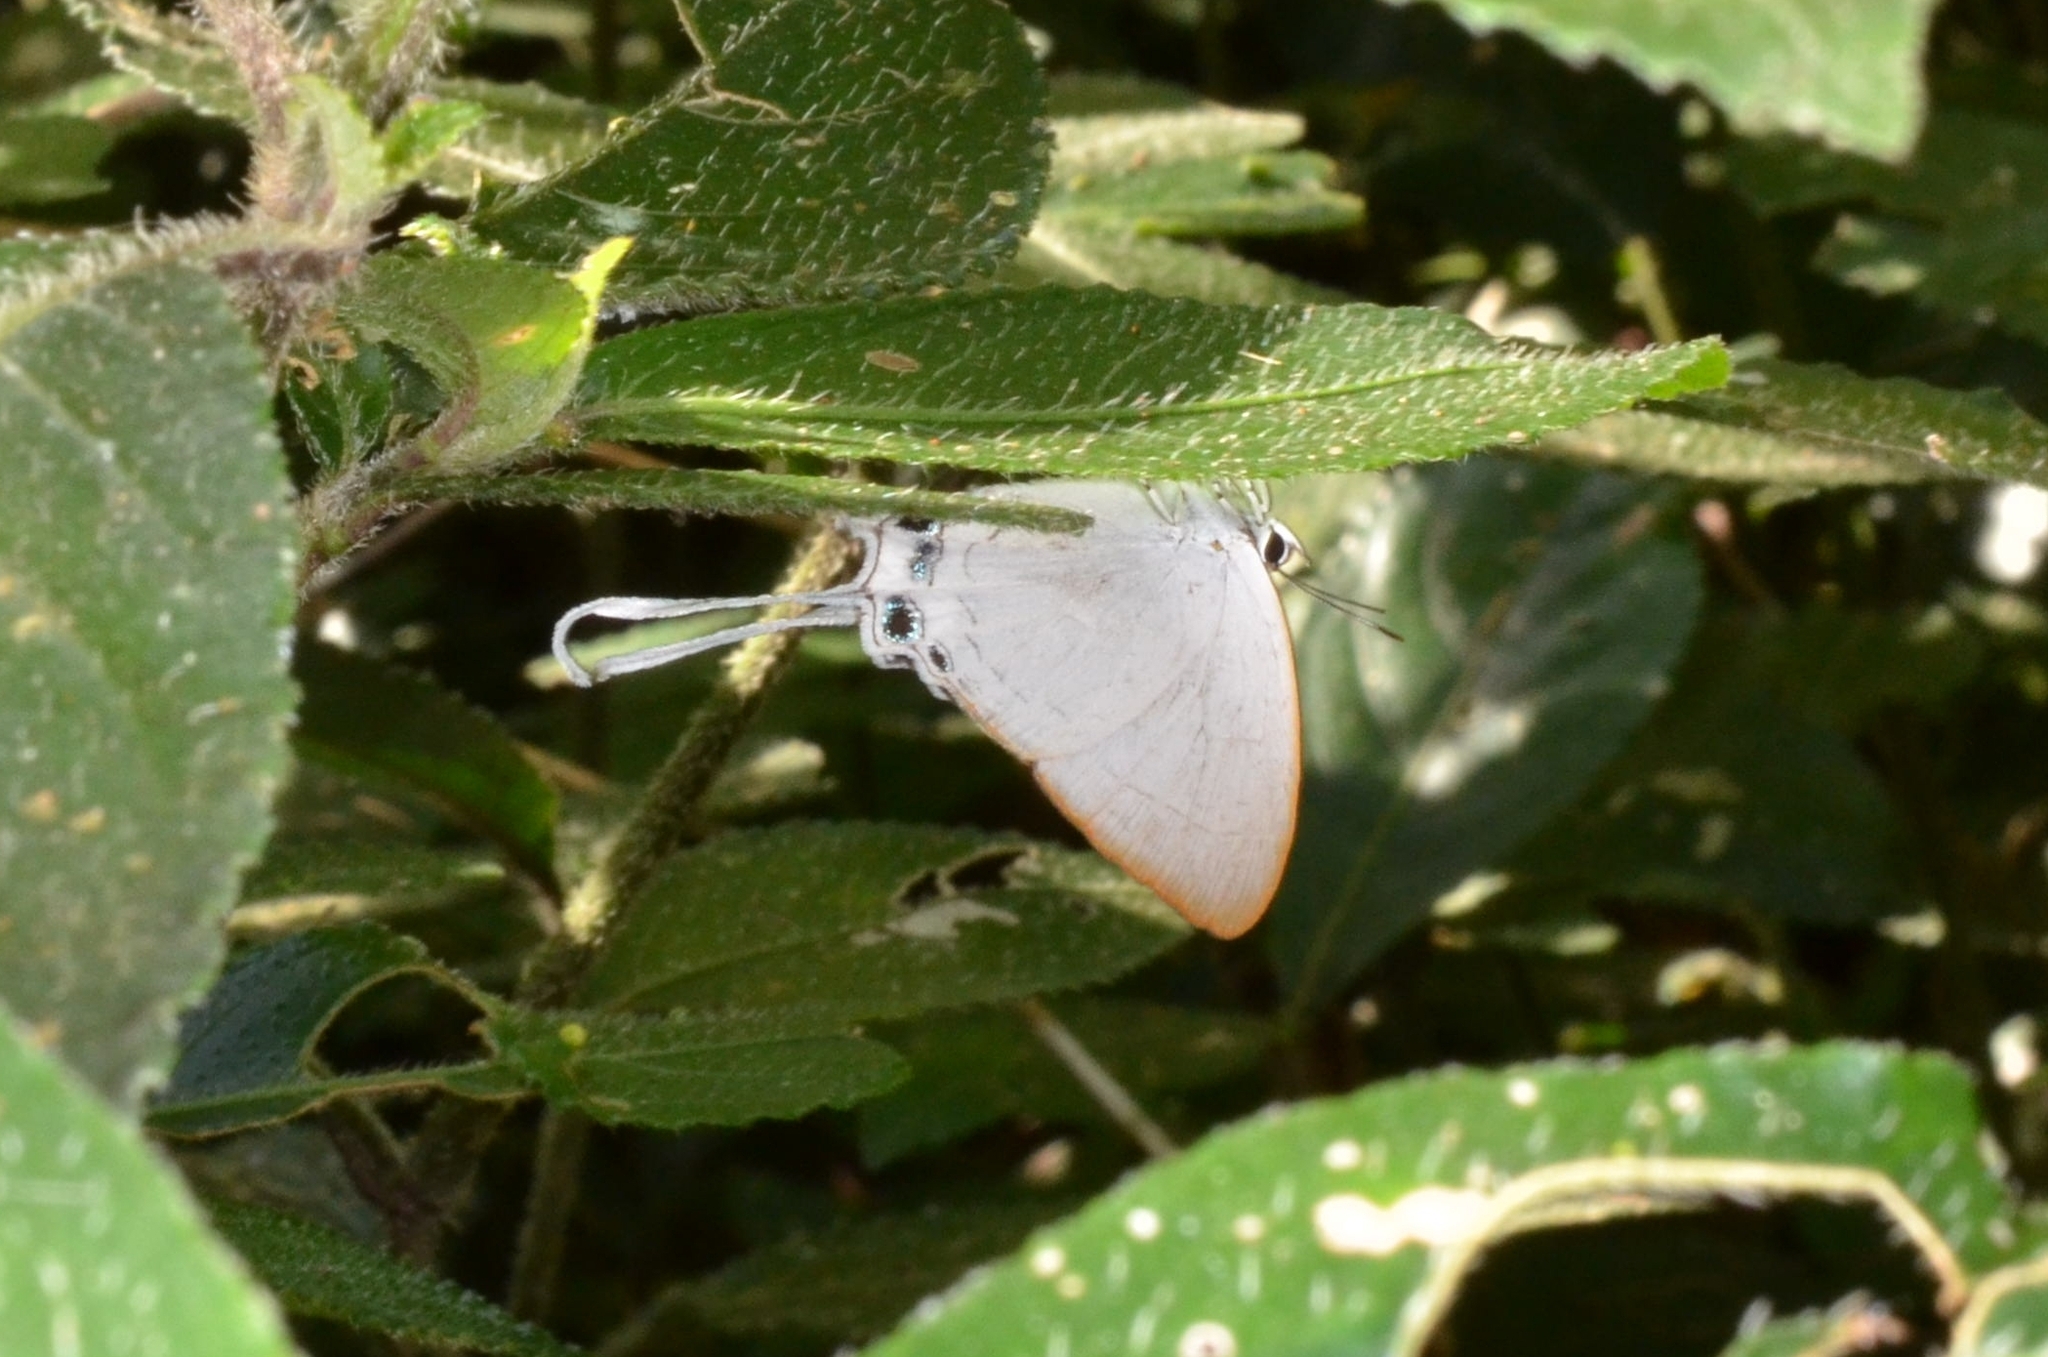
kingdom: Animalia
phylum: Arthropoda
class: Insecta
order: Lepidoptera
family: Lycaenidae
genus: Cheritra
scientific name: Cheritra freja
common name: Common imperial
